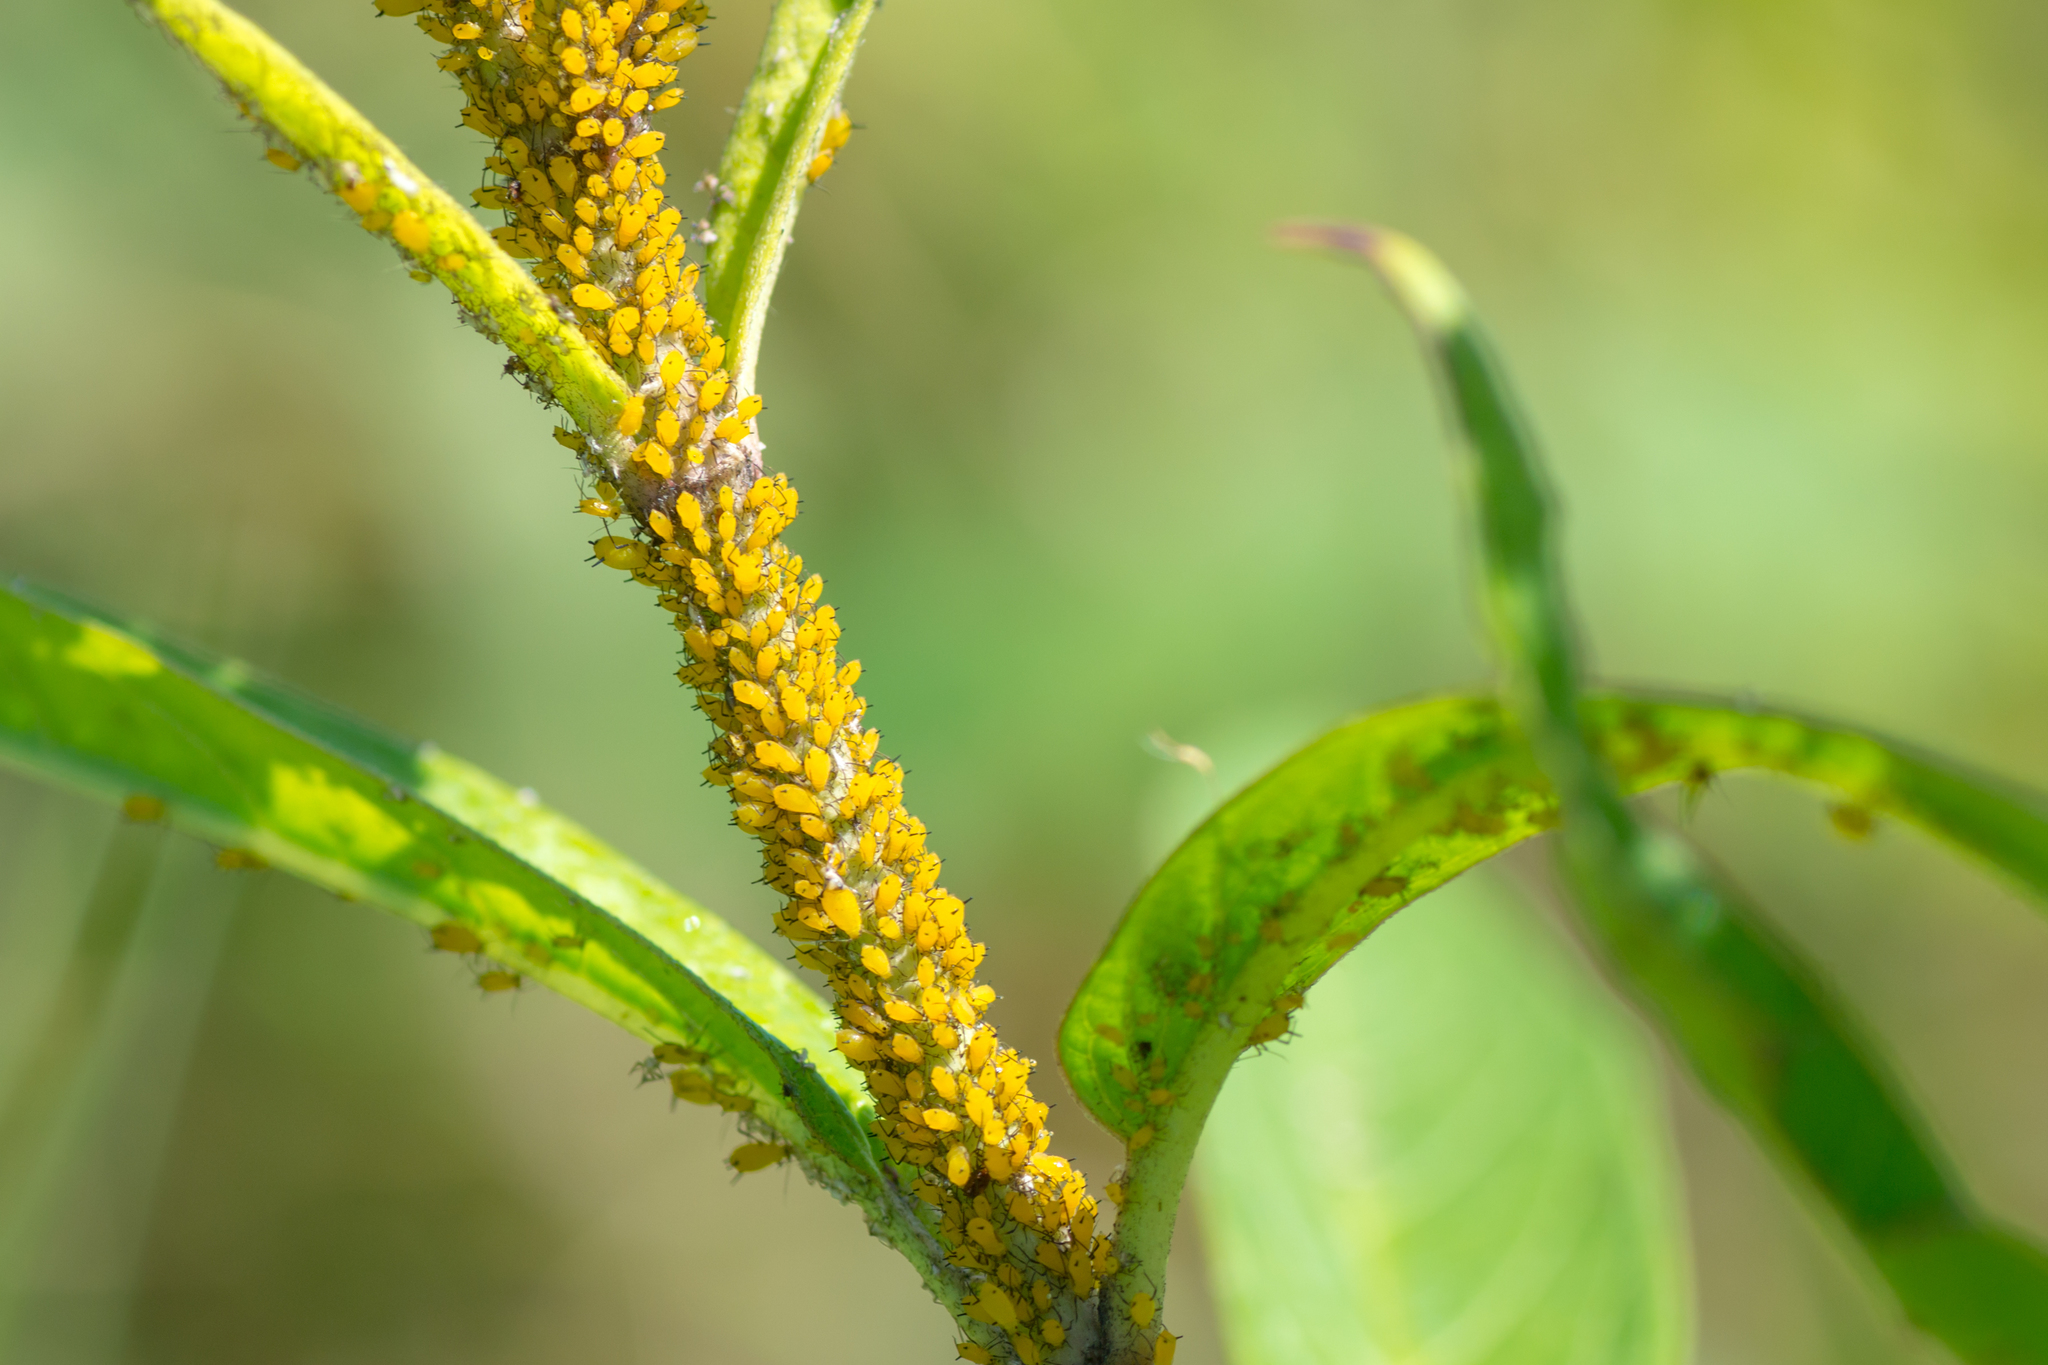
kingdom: Animalia
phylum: Arthropoda
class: Insecta
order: Hemiptera
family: Aphididae
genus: Aphis
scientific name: Aphis nerii
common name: Oleander aphid
